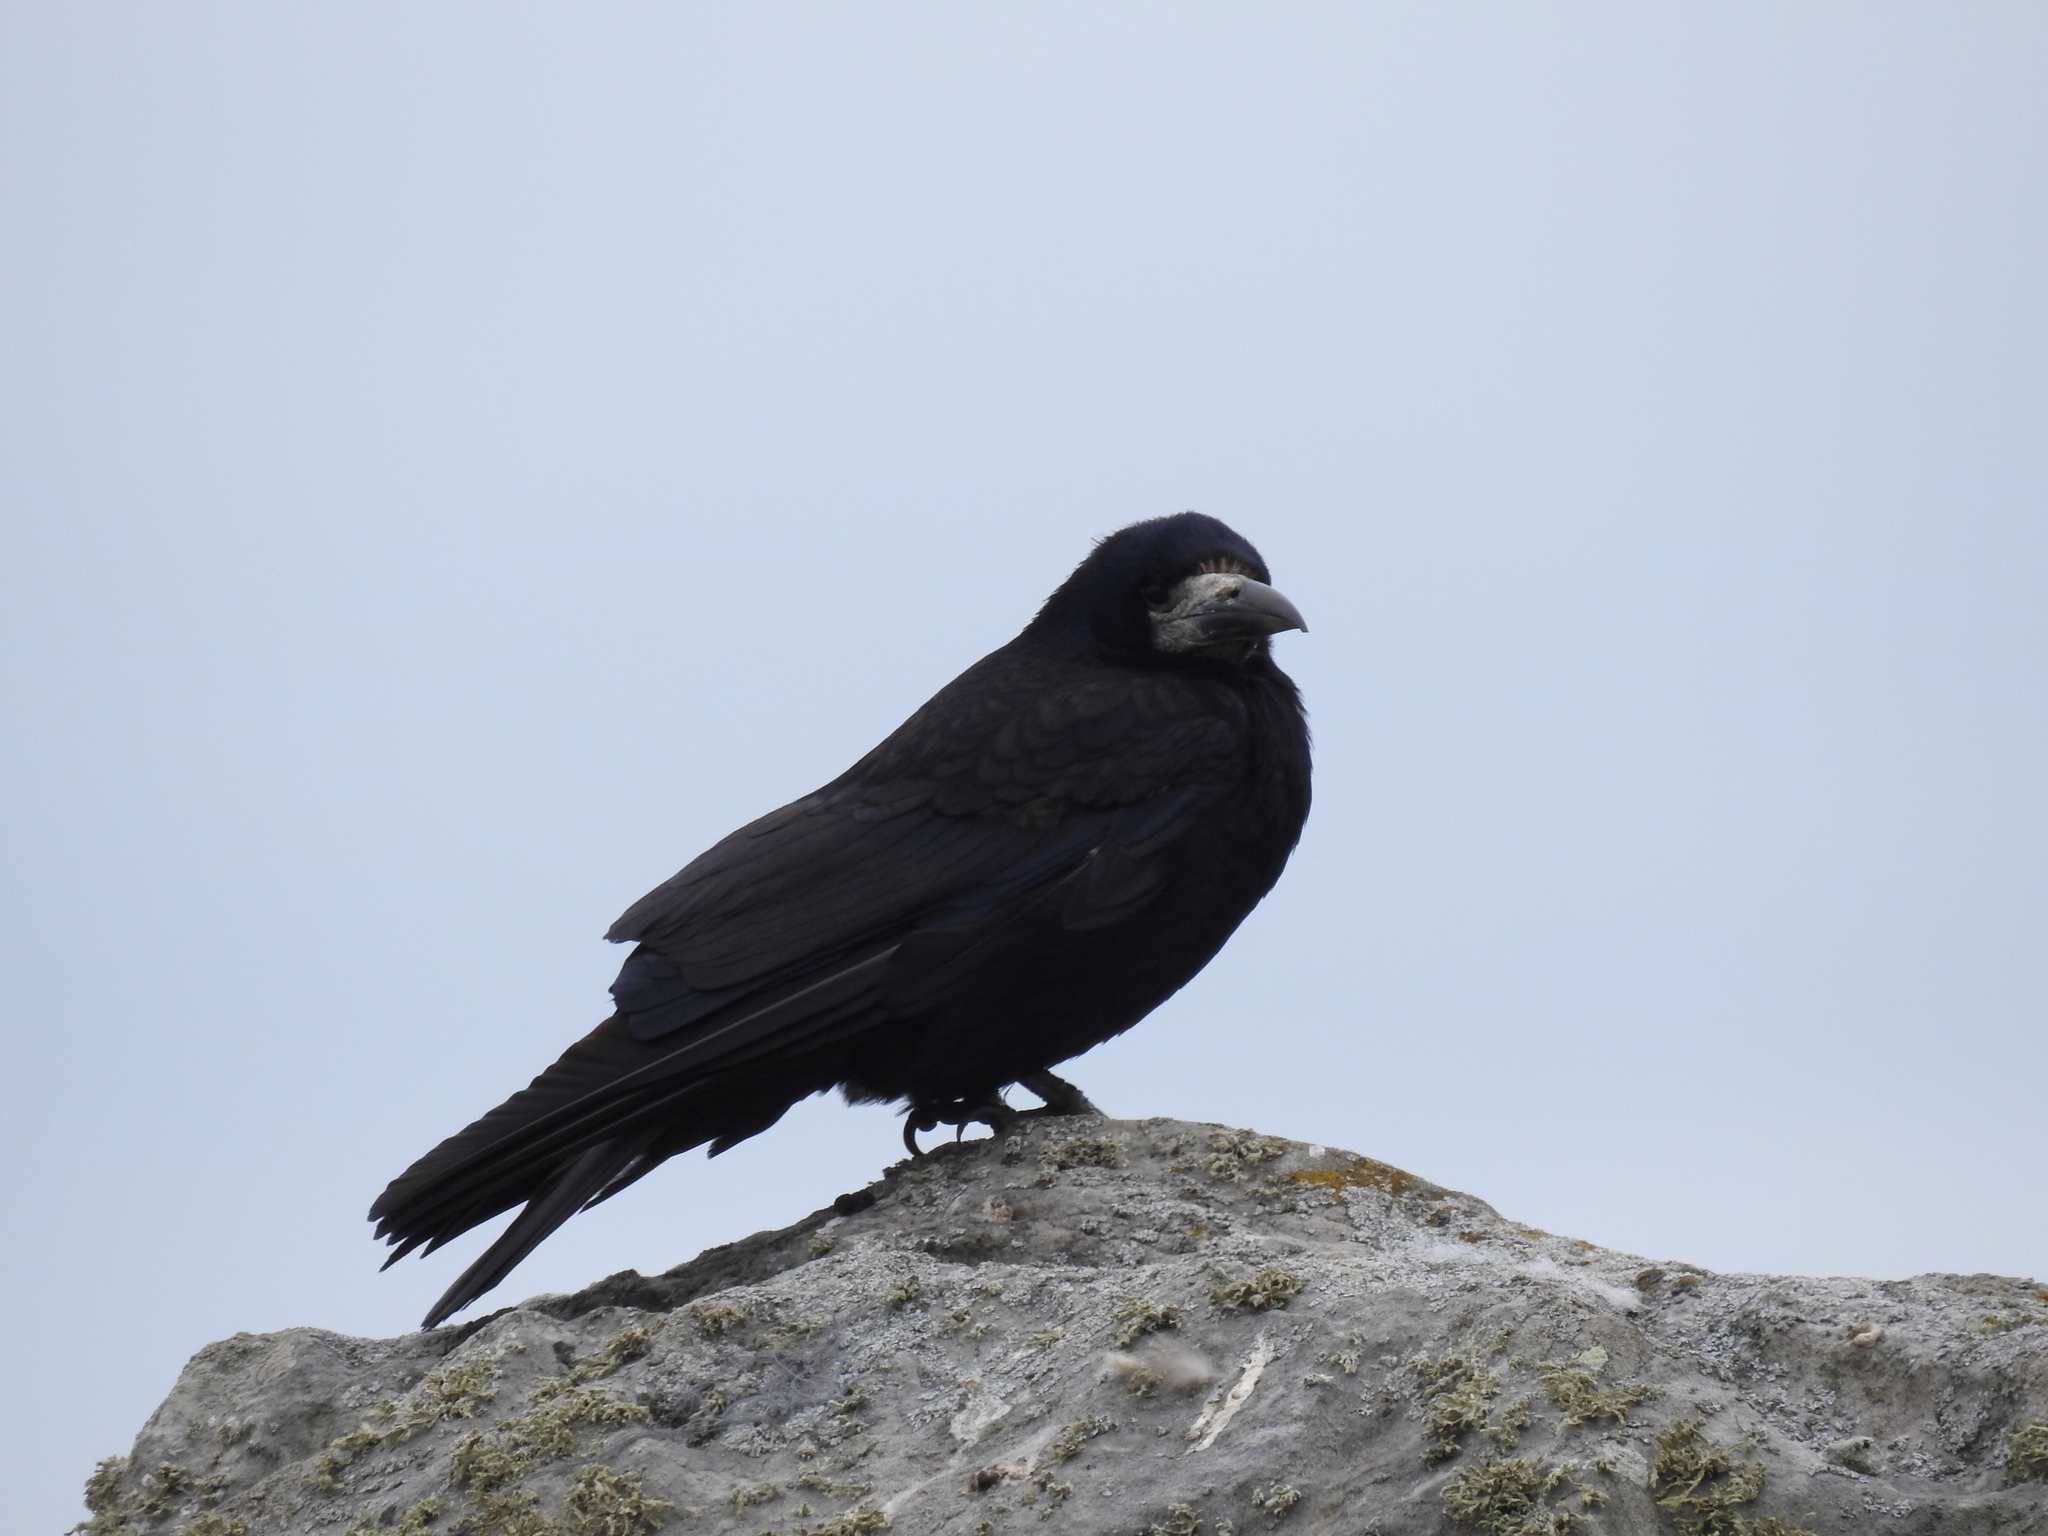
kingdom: Animalia
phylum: Chordata
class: Aves
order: Passeriformes
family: Corvidae
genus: Corvus
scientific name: Corvus frugilegus
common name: Rook
